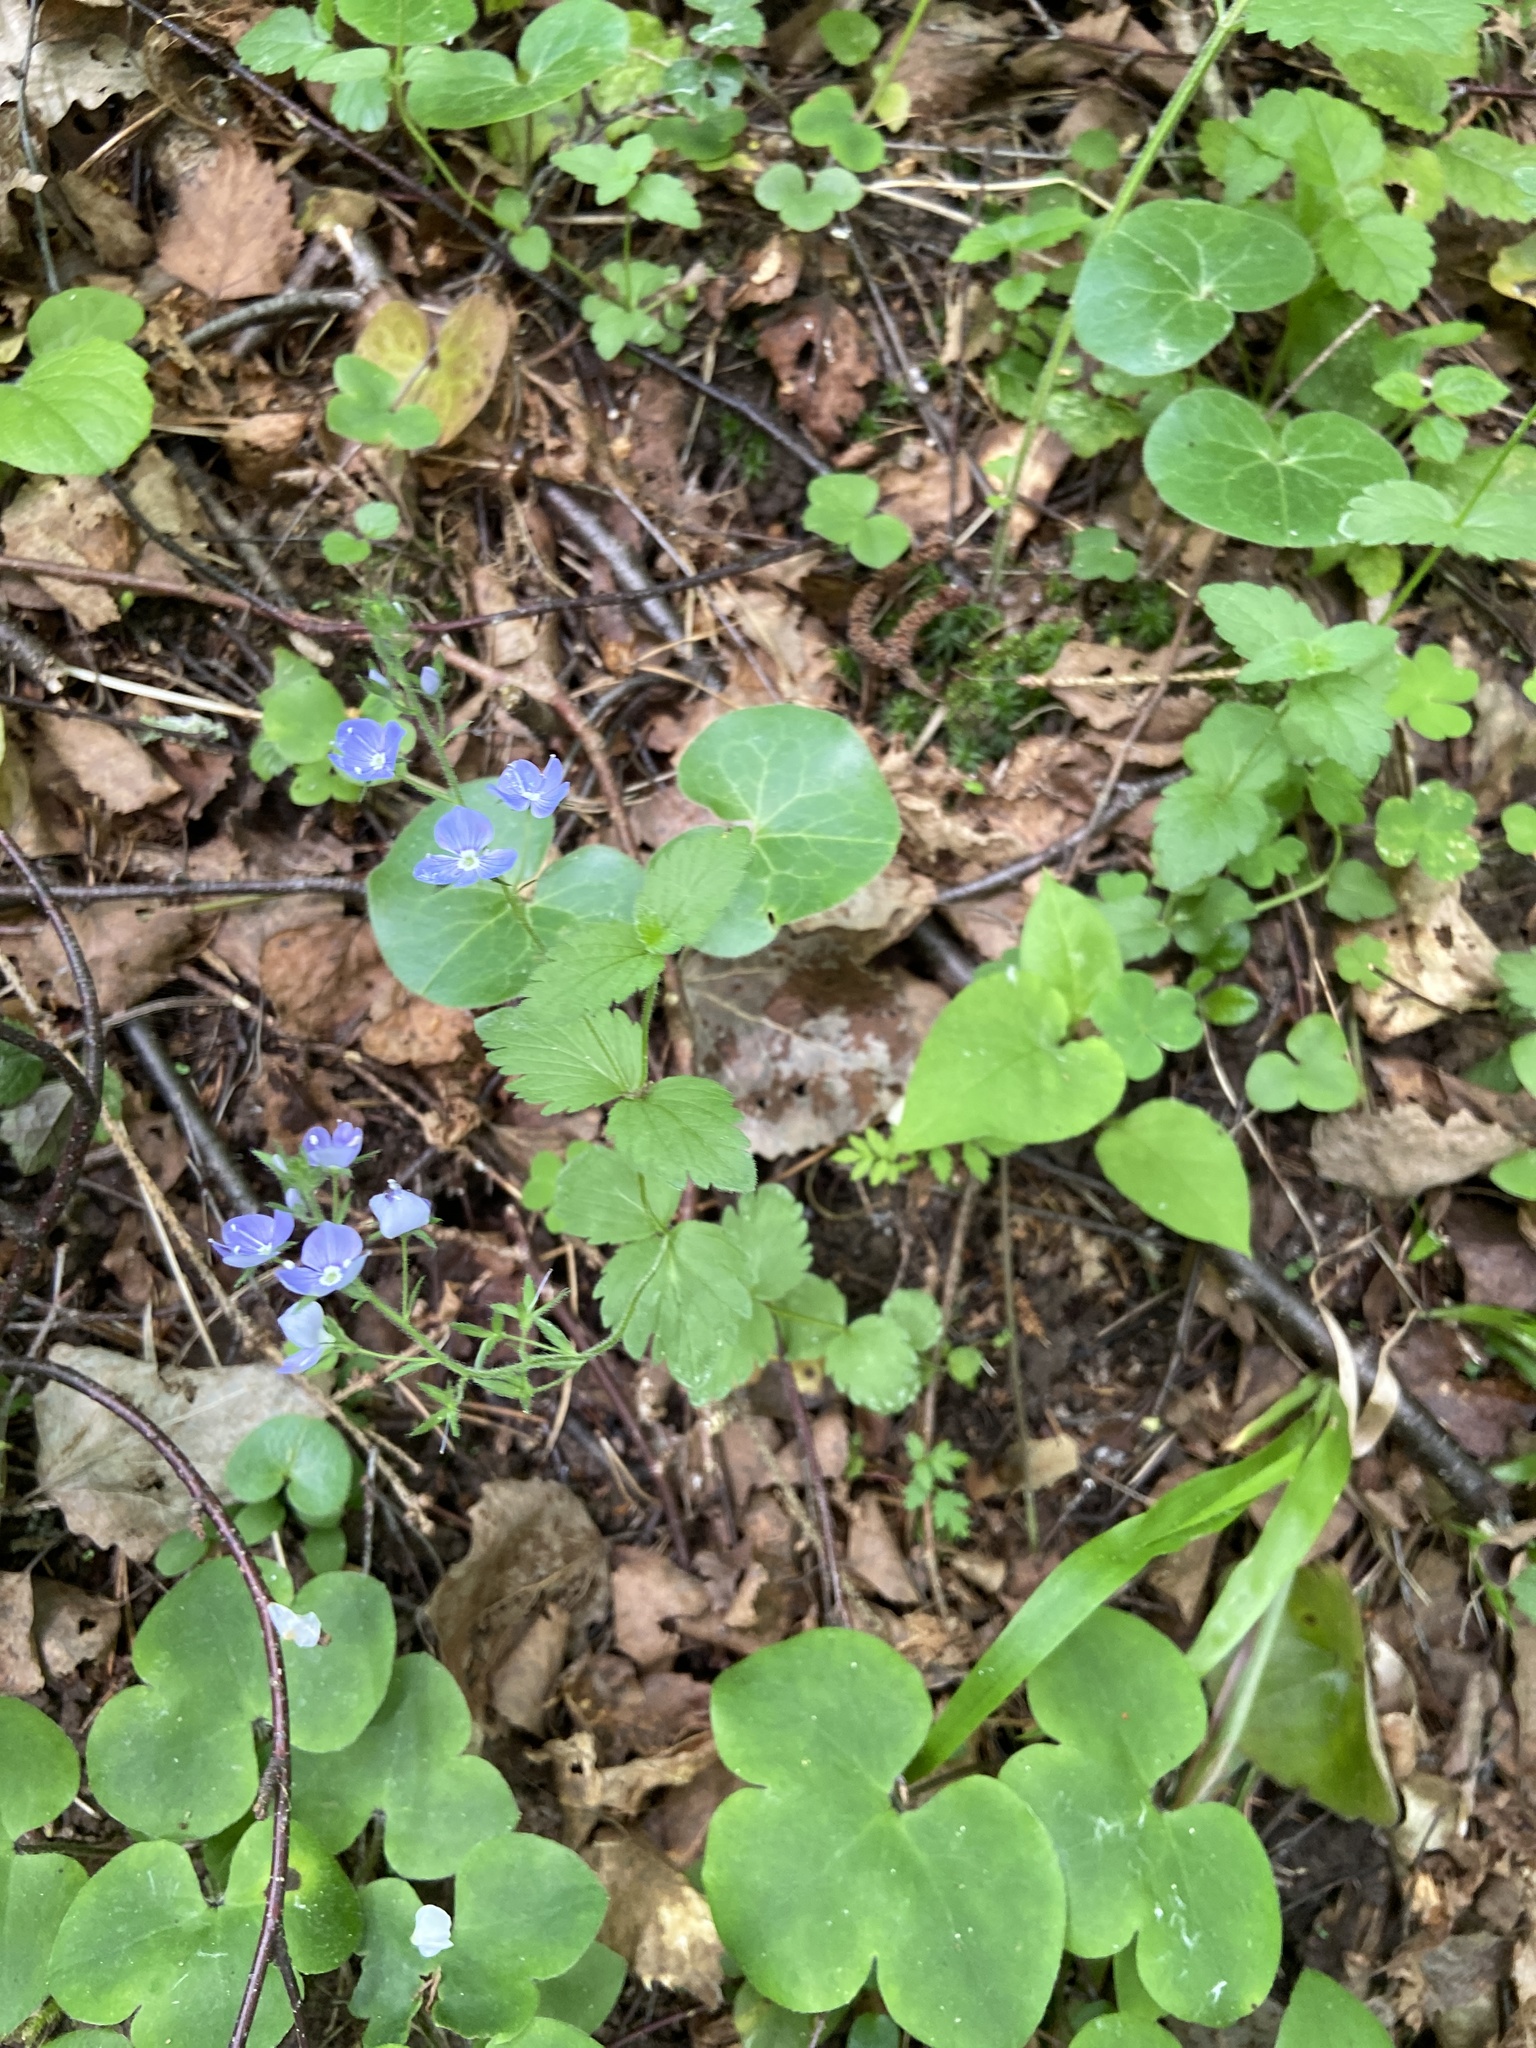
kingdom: Plantae
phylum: Tracheophyta
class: Magnoliopsida
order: Lamiales
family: Plantaginaceae
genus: Veronica
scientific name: Veronica chamaedrys
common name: Germander speedwell
